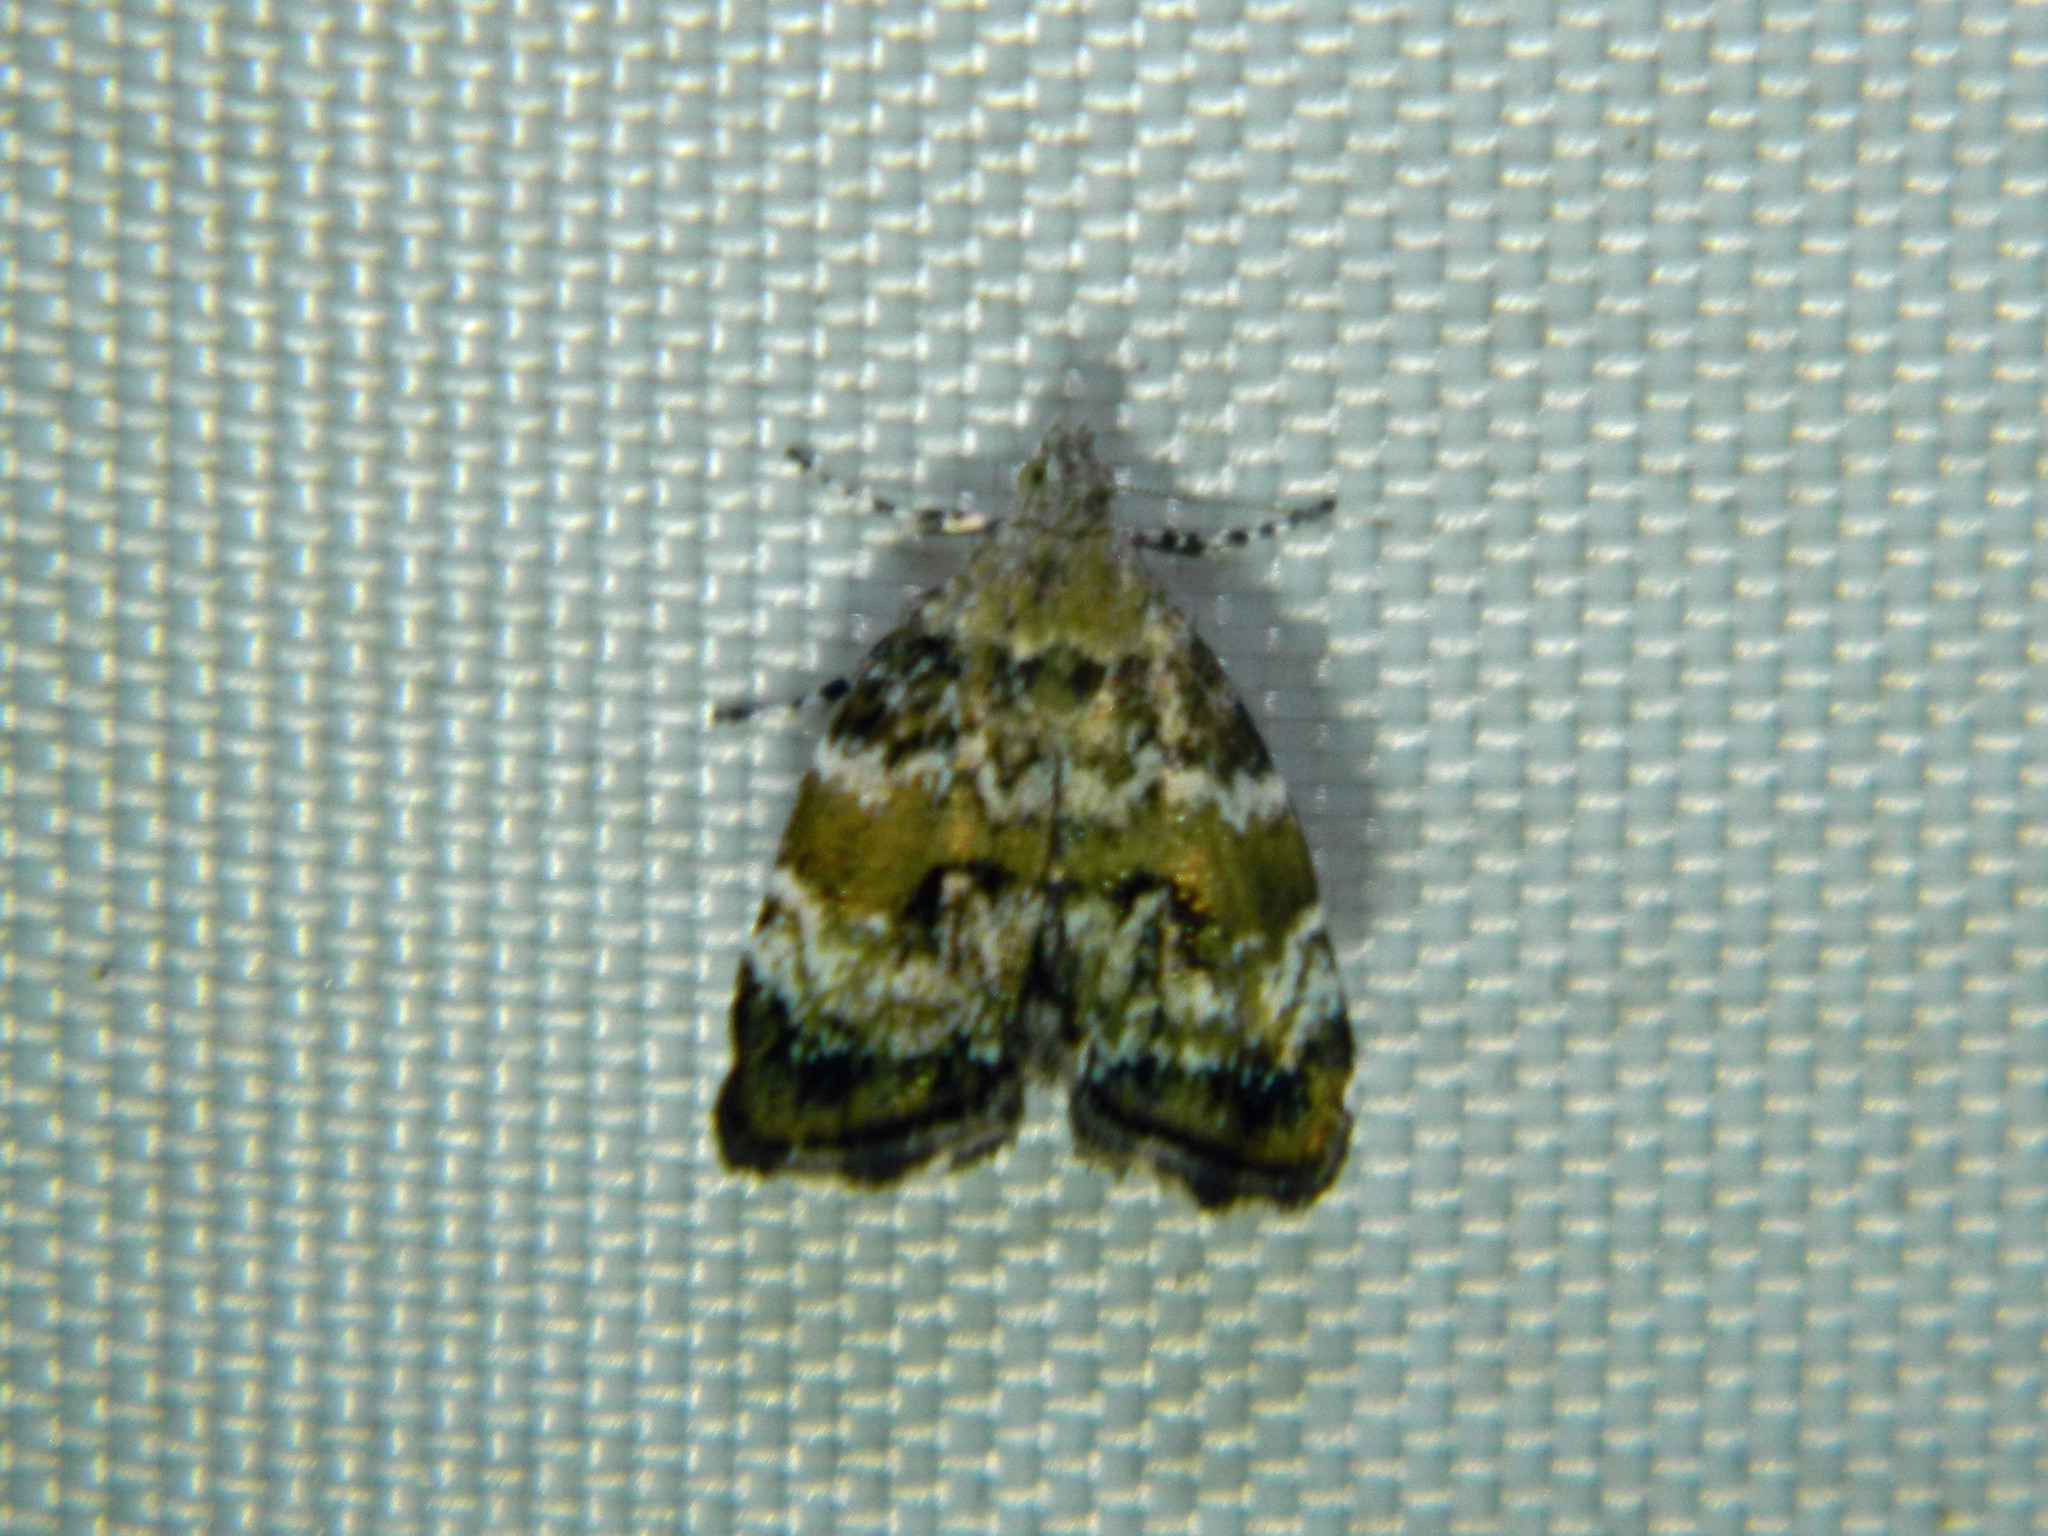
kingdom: Animalia
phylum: Arthropoda
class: Insecta
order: Lepidoptera
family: Choreutidae
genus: Choreutis
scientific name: Choreutis diana
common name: Inverness twitcher
